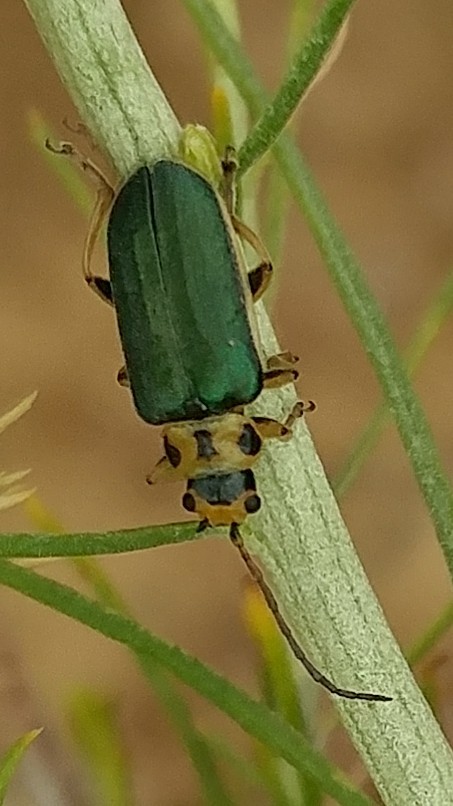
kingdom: Animalia
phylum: Arthropoda
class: Insecta
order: Coleoptera
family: Chrysomelidae
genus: Trirhabda
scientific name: Trirhabda flavolimbata
